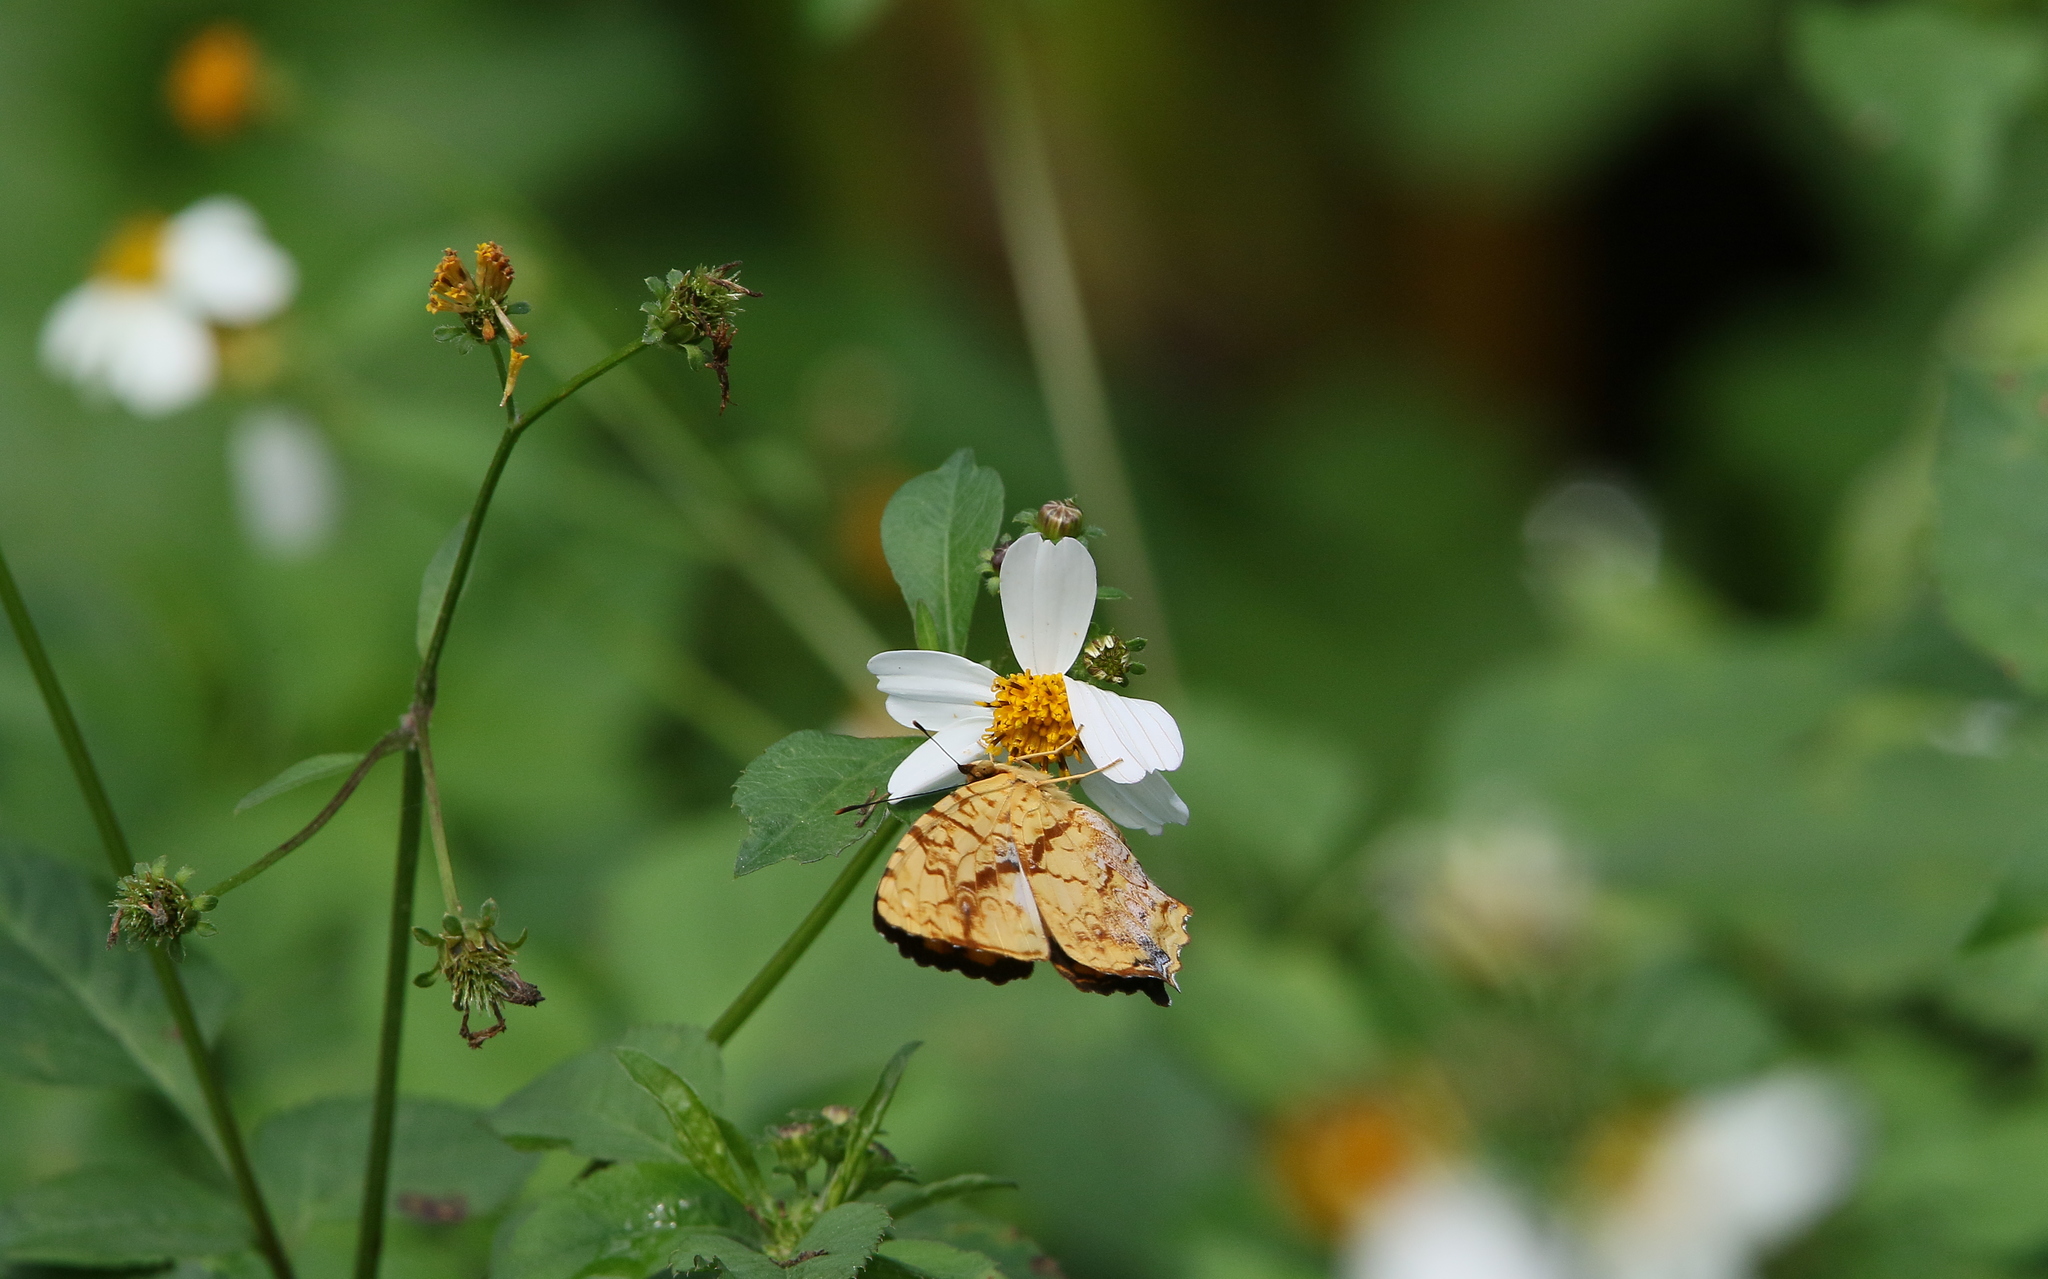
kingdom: Animalia
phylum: Arthropoda
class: Insecta
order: Lepidoptera
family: Nymphalidae
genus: Symbrenthia
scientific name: Symbrenthia hypselis
